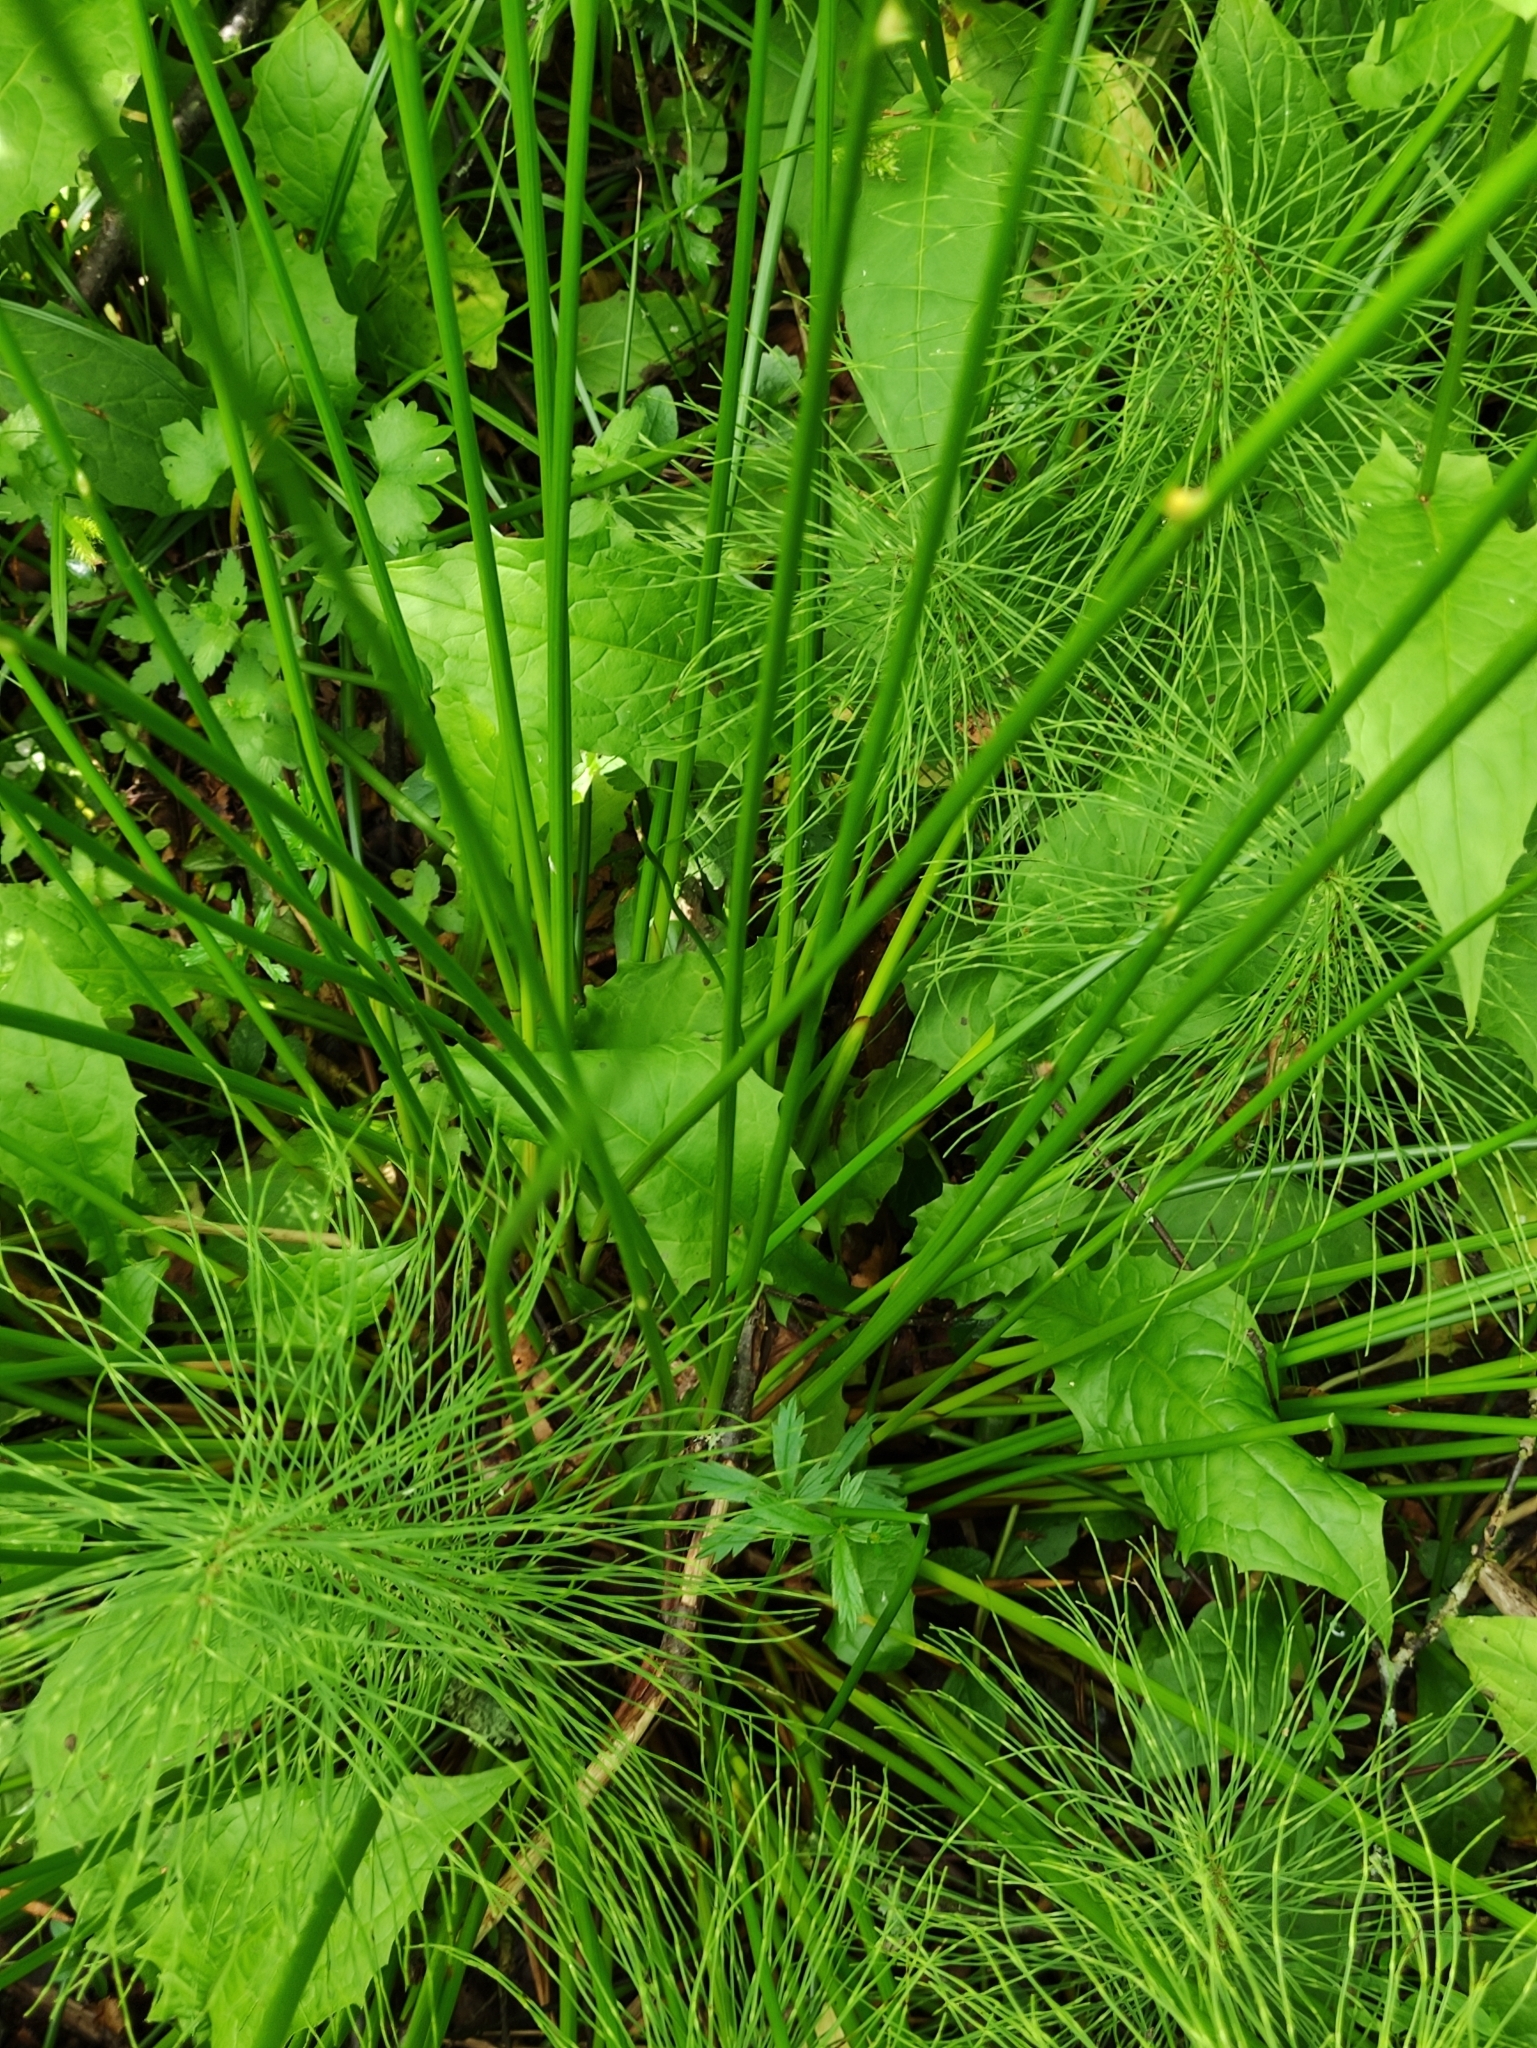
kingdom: Plantae
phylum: Tracheophyta
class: Liliopsida
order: Poales
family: Juncaceae
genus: Juncus
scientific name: Juncus effusus
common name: Soft rush
